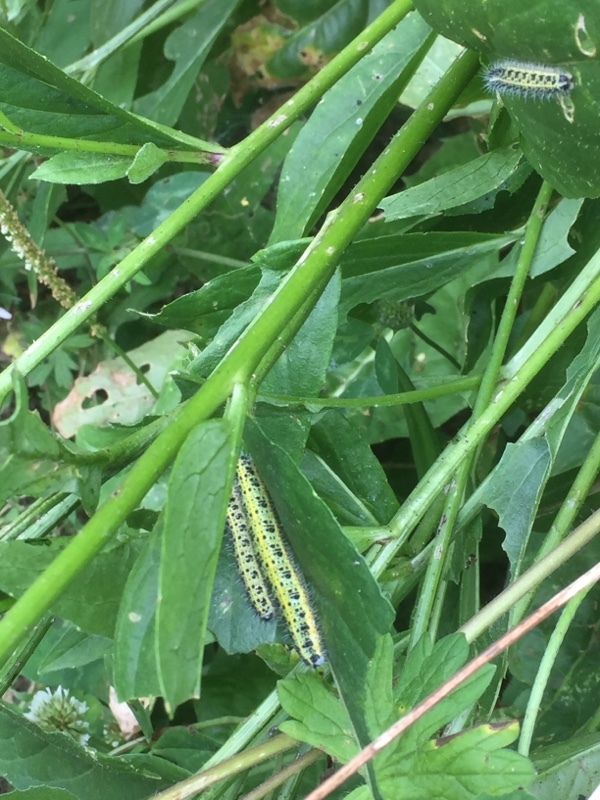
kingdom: Animalia
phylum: Arthropoda
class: Insecta
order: Lepidoptera
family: Pieridae
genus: Pieris
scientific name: Pieris brassicae
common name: Large white
